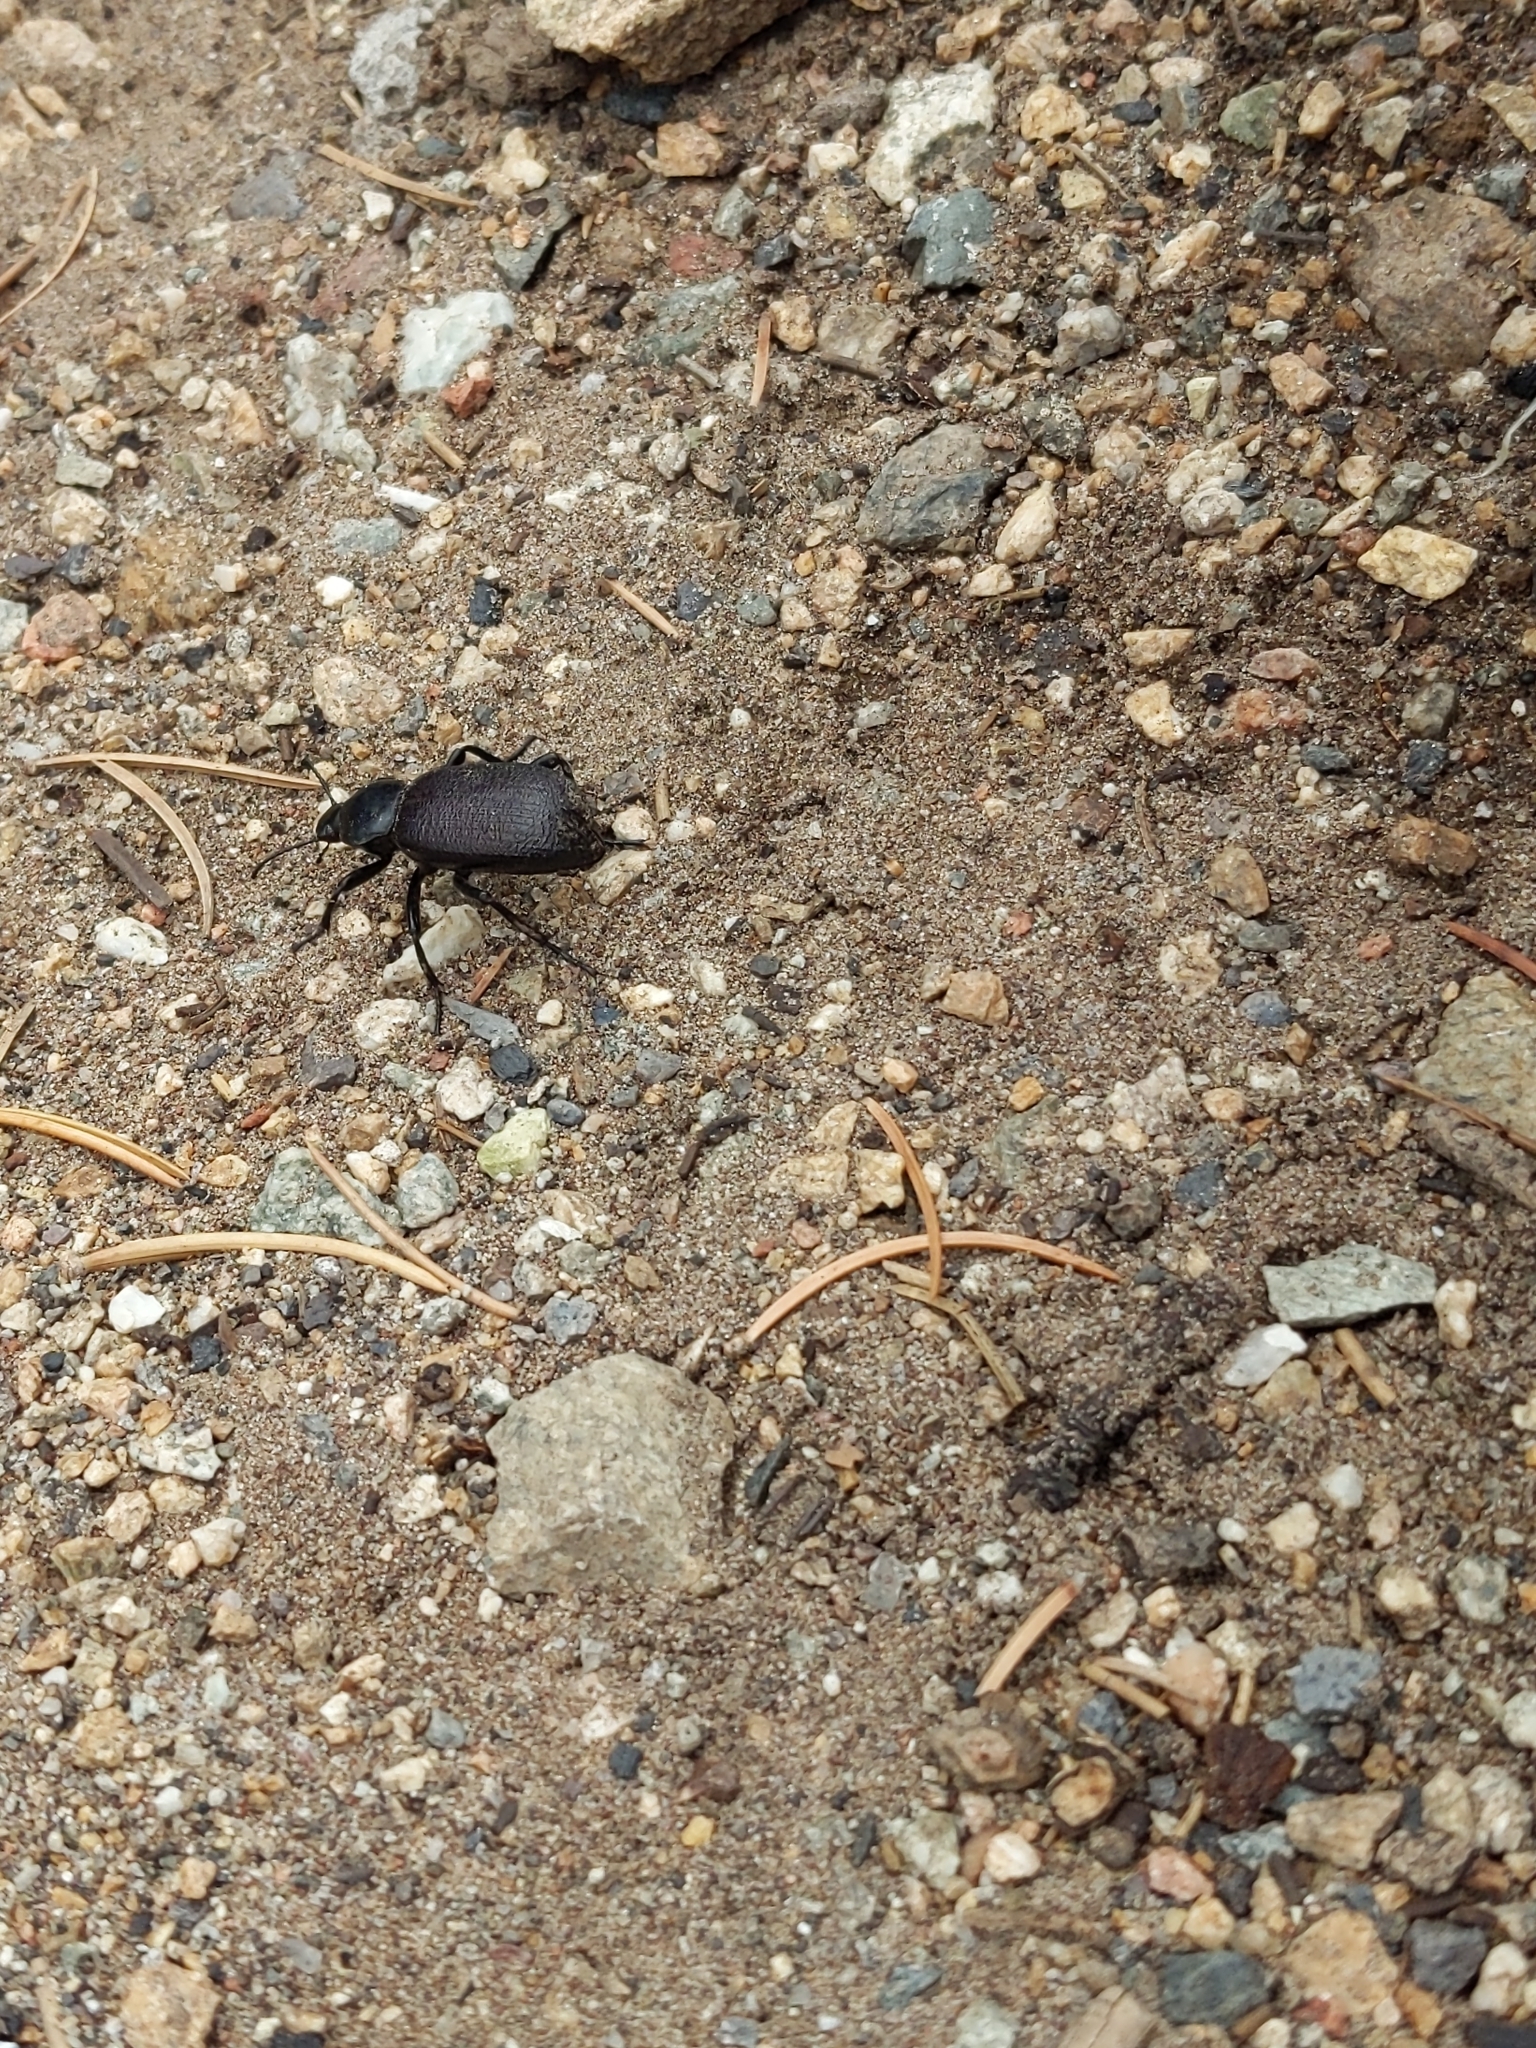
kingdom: Animalia
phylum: Arthropoda
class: Insecta
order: Coleoptera
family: Tenebrionidae
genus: Eleodes
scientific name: Eleodes obscura
